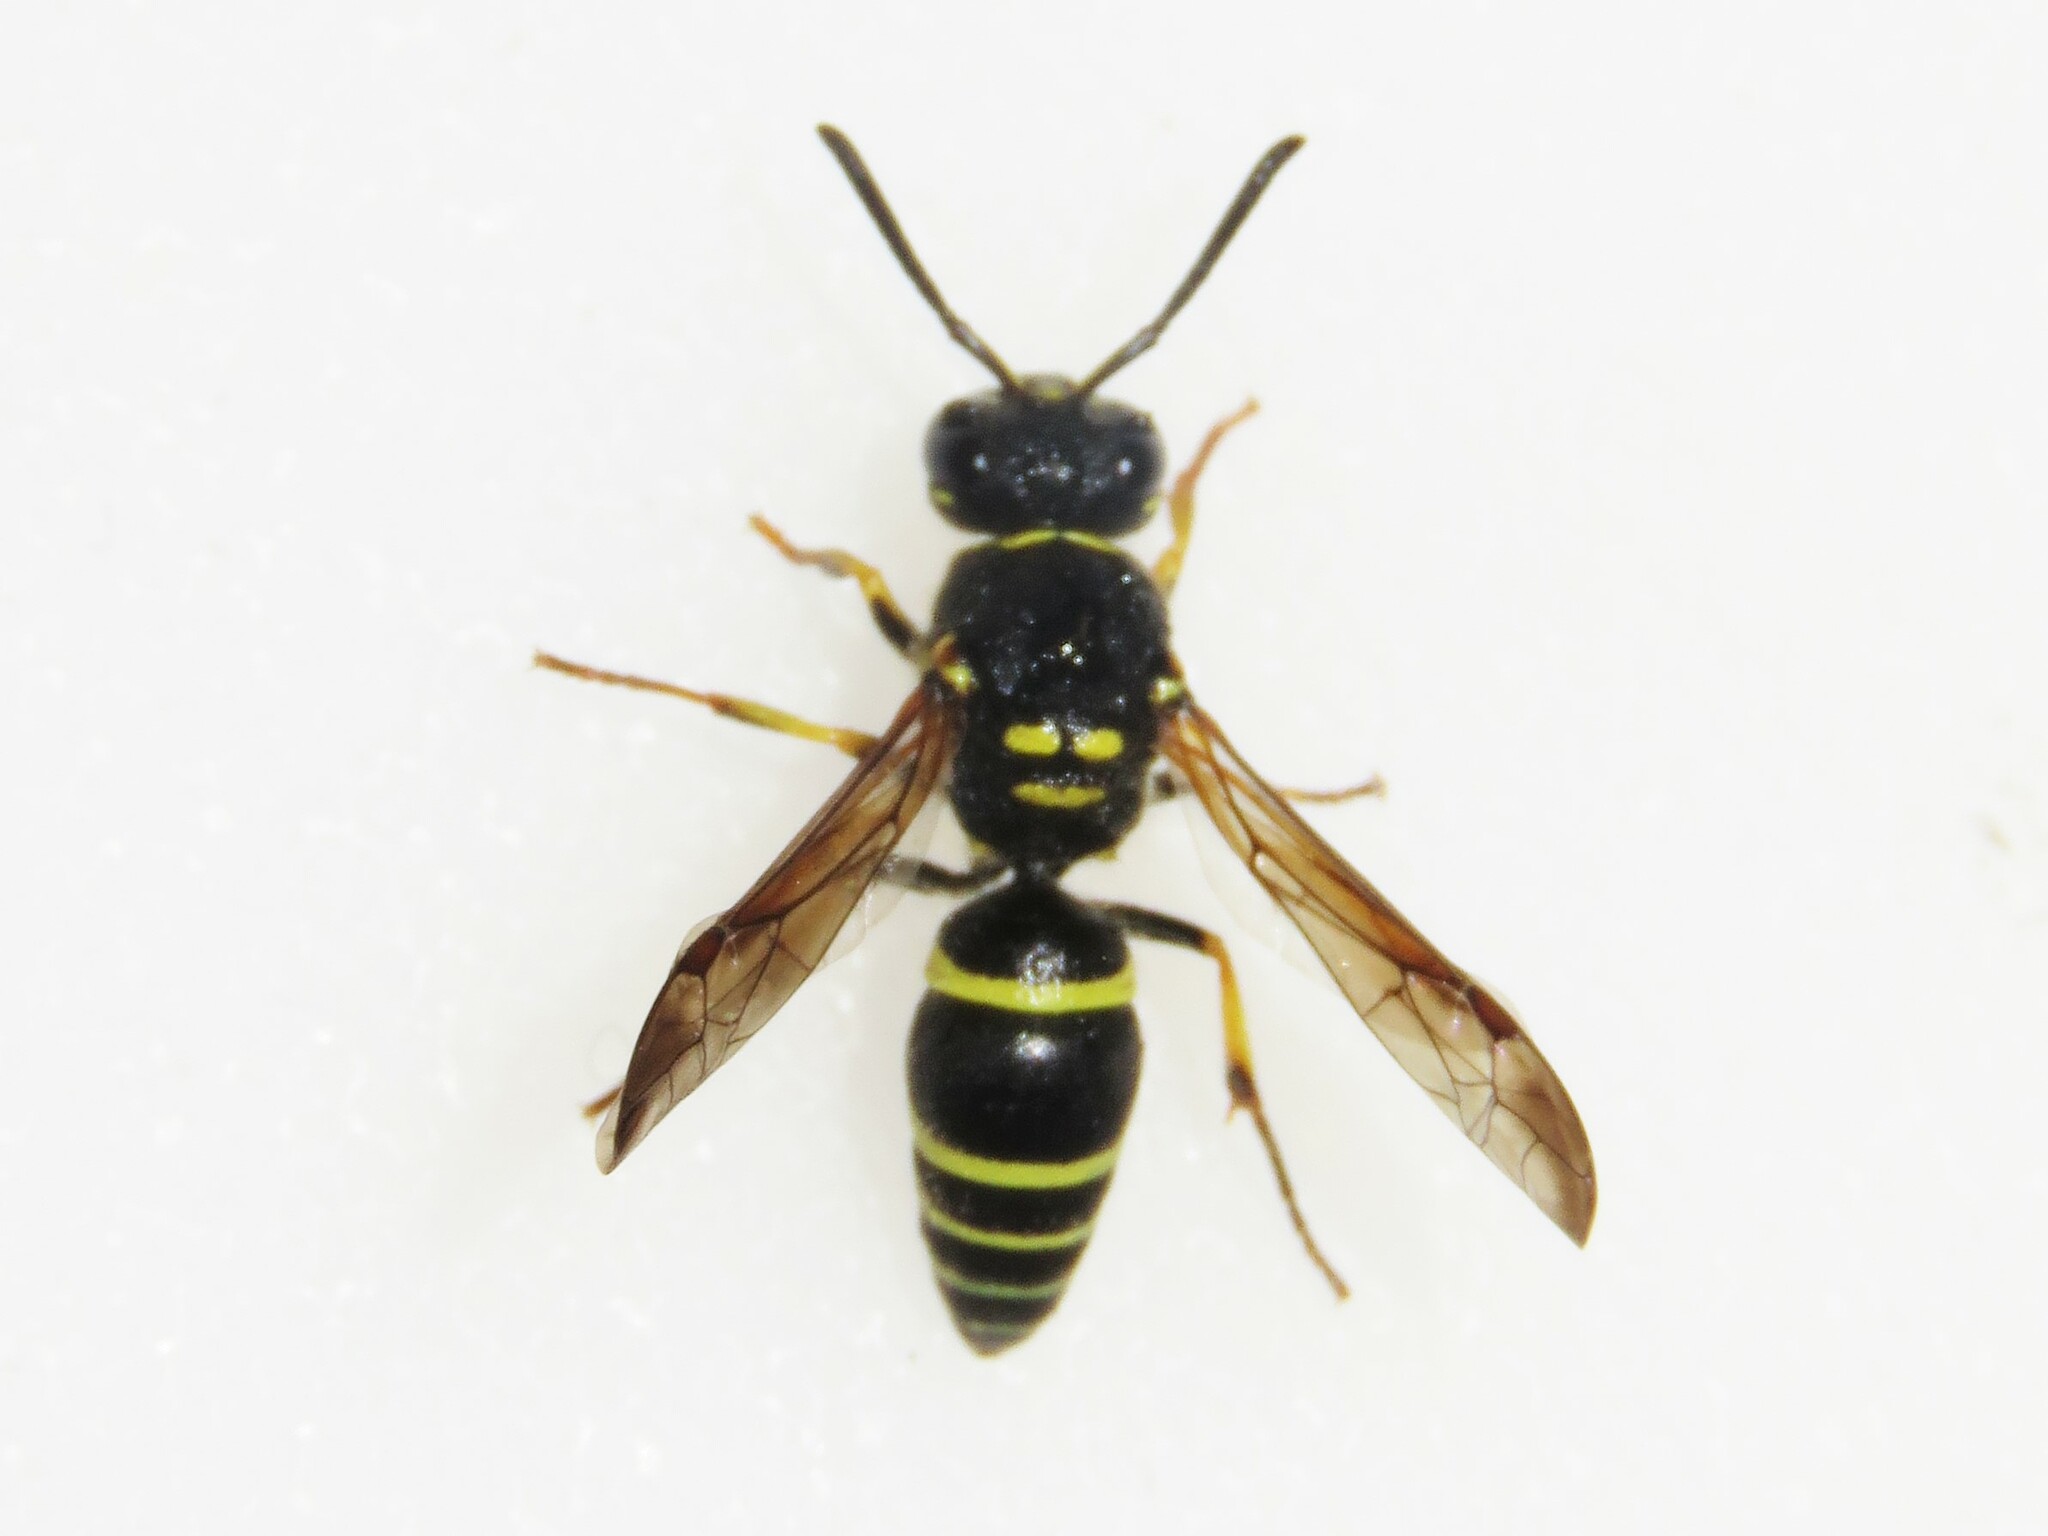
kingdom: Animalia
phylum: Arthropoda
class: Insecta
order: Hymenoptera
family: Vespidae
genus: Ancistrocerus
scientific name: Ancistrocerus catskill
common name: Vespid wasp
